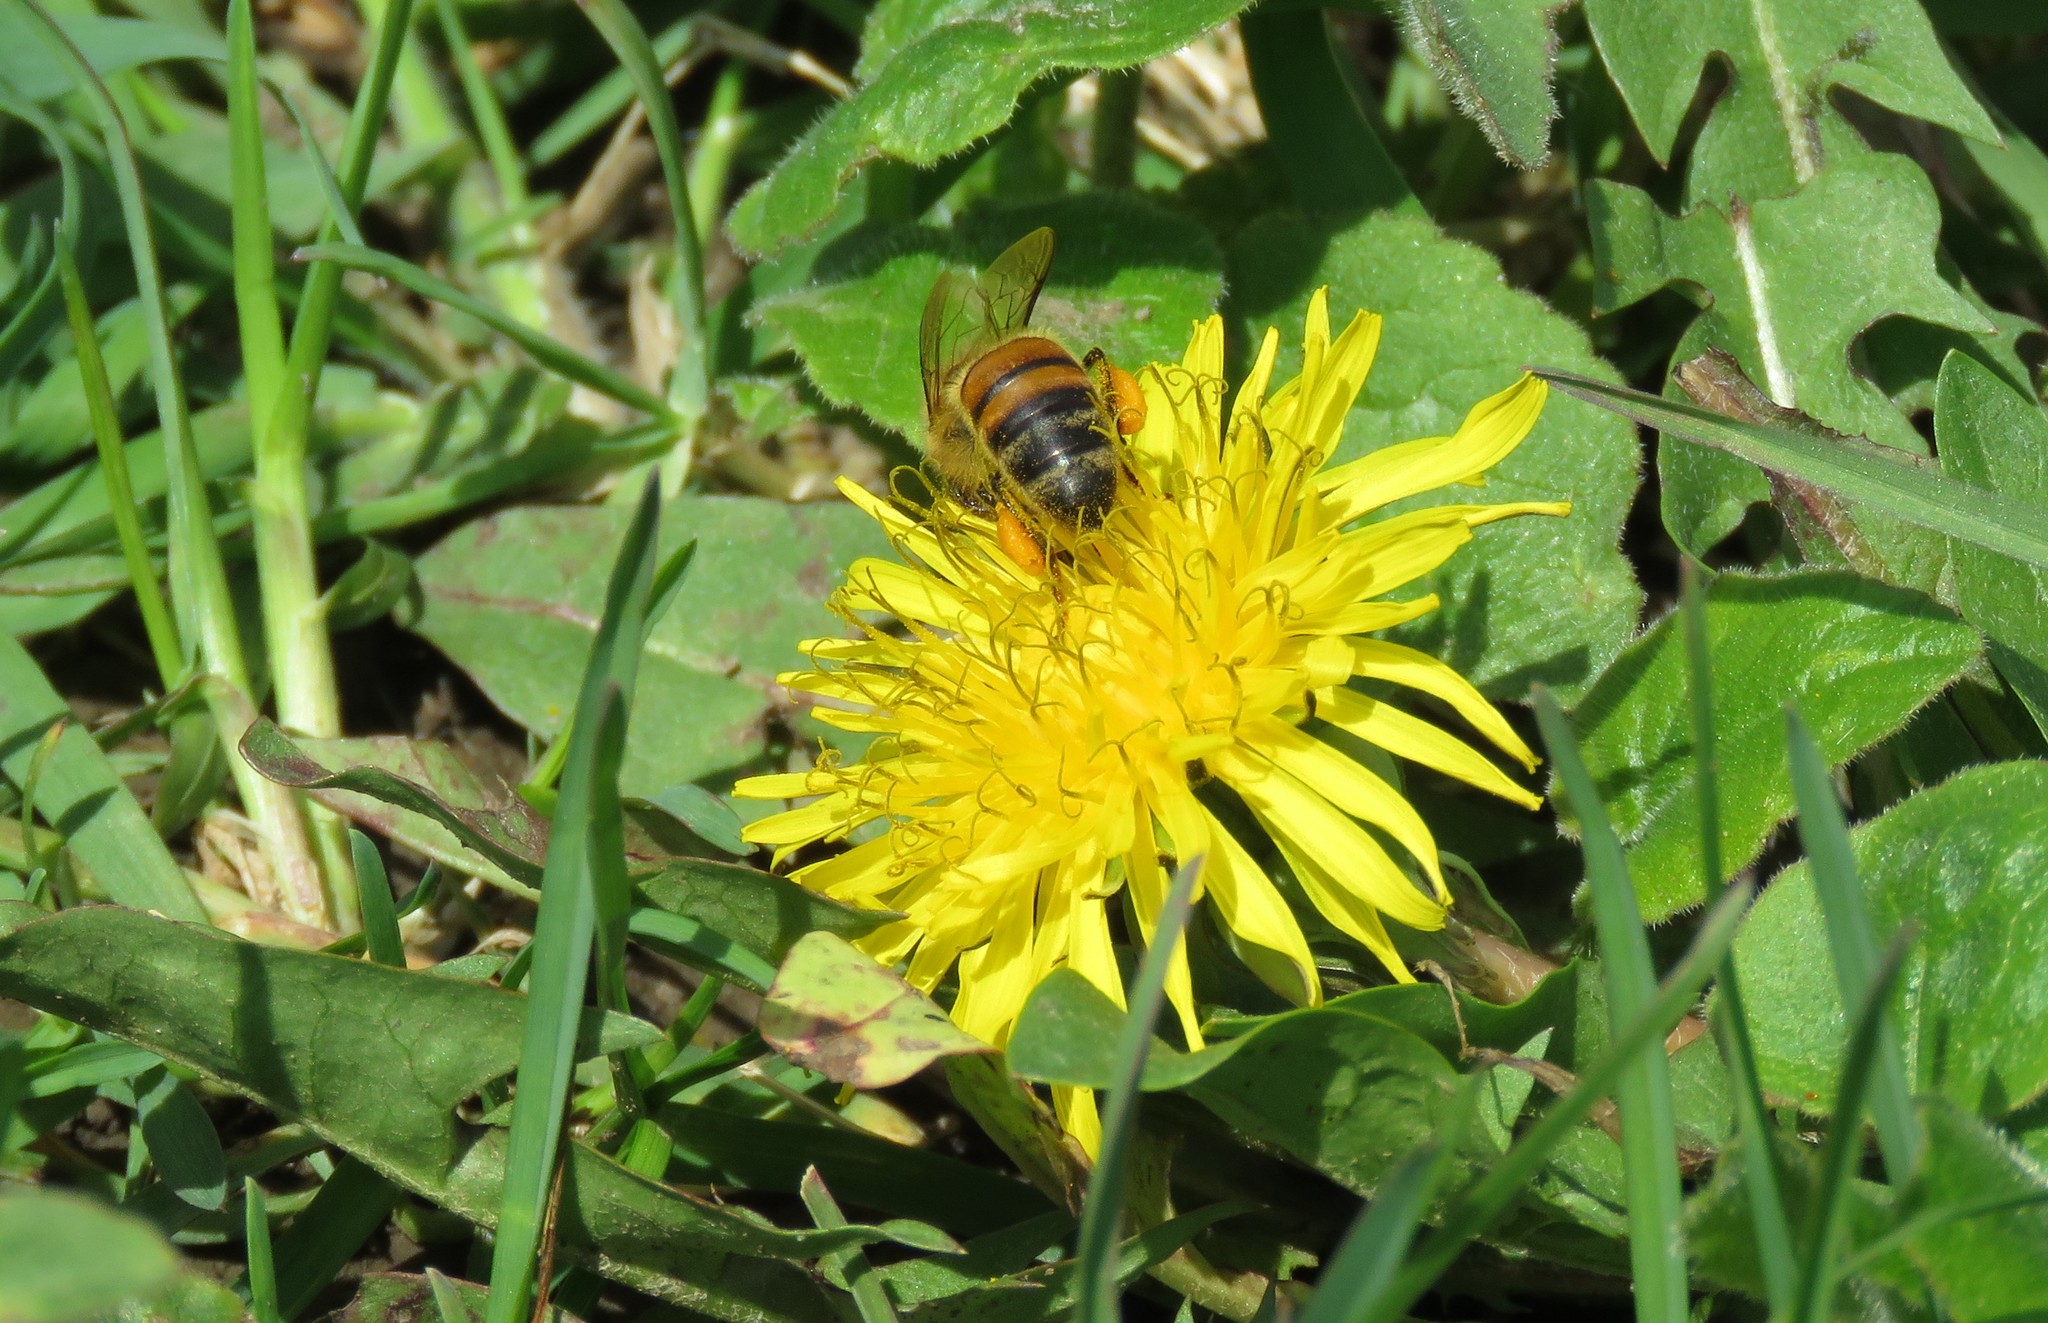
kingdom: Animalia
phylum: Arthropoda
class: Insecta
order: Hymenoptera
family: Apidae
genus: Apis
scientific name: Apis mellifera
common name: Honey bee
